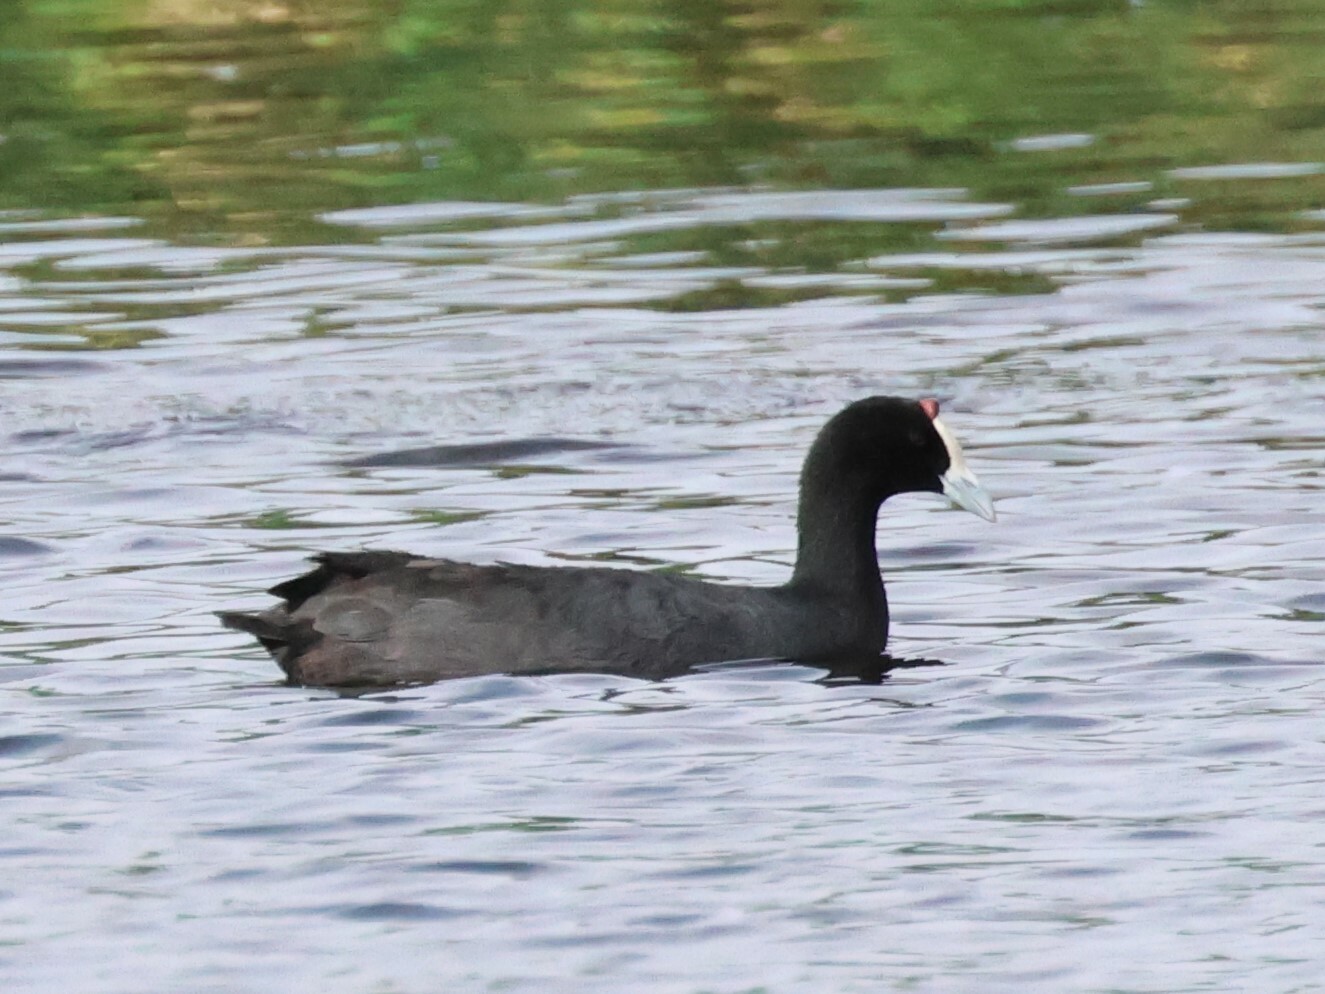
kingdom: Animalia
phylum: Chordata
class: Aves
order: Gruiformes
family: Rallidae
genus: Fulica
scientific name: Fulica cristata
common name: Red-knobbed coot
